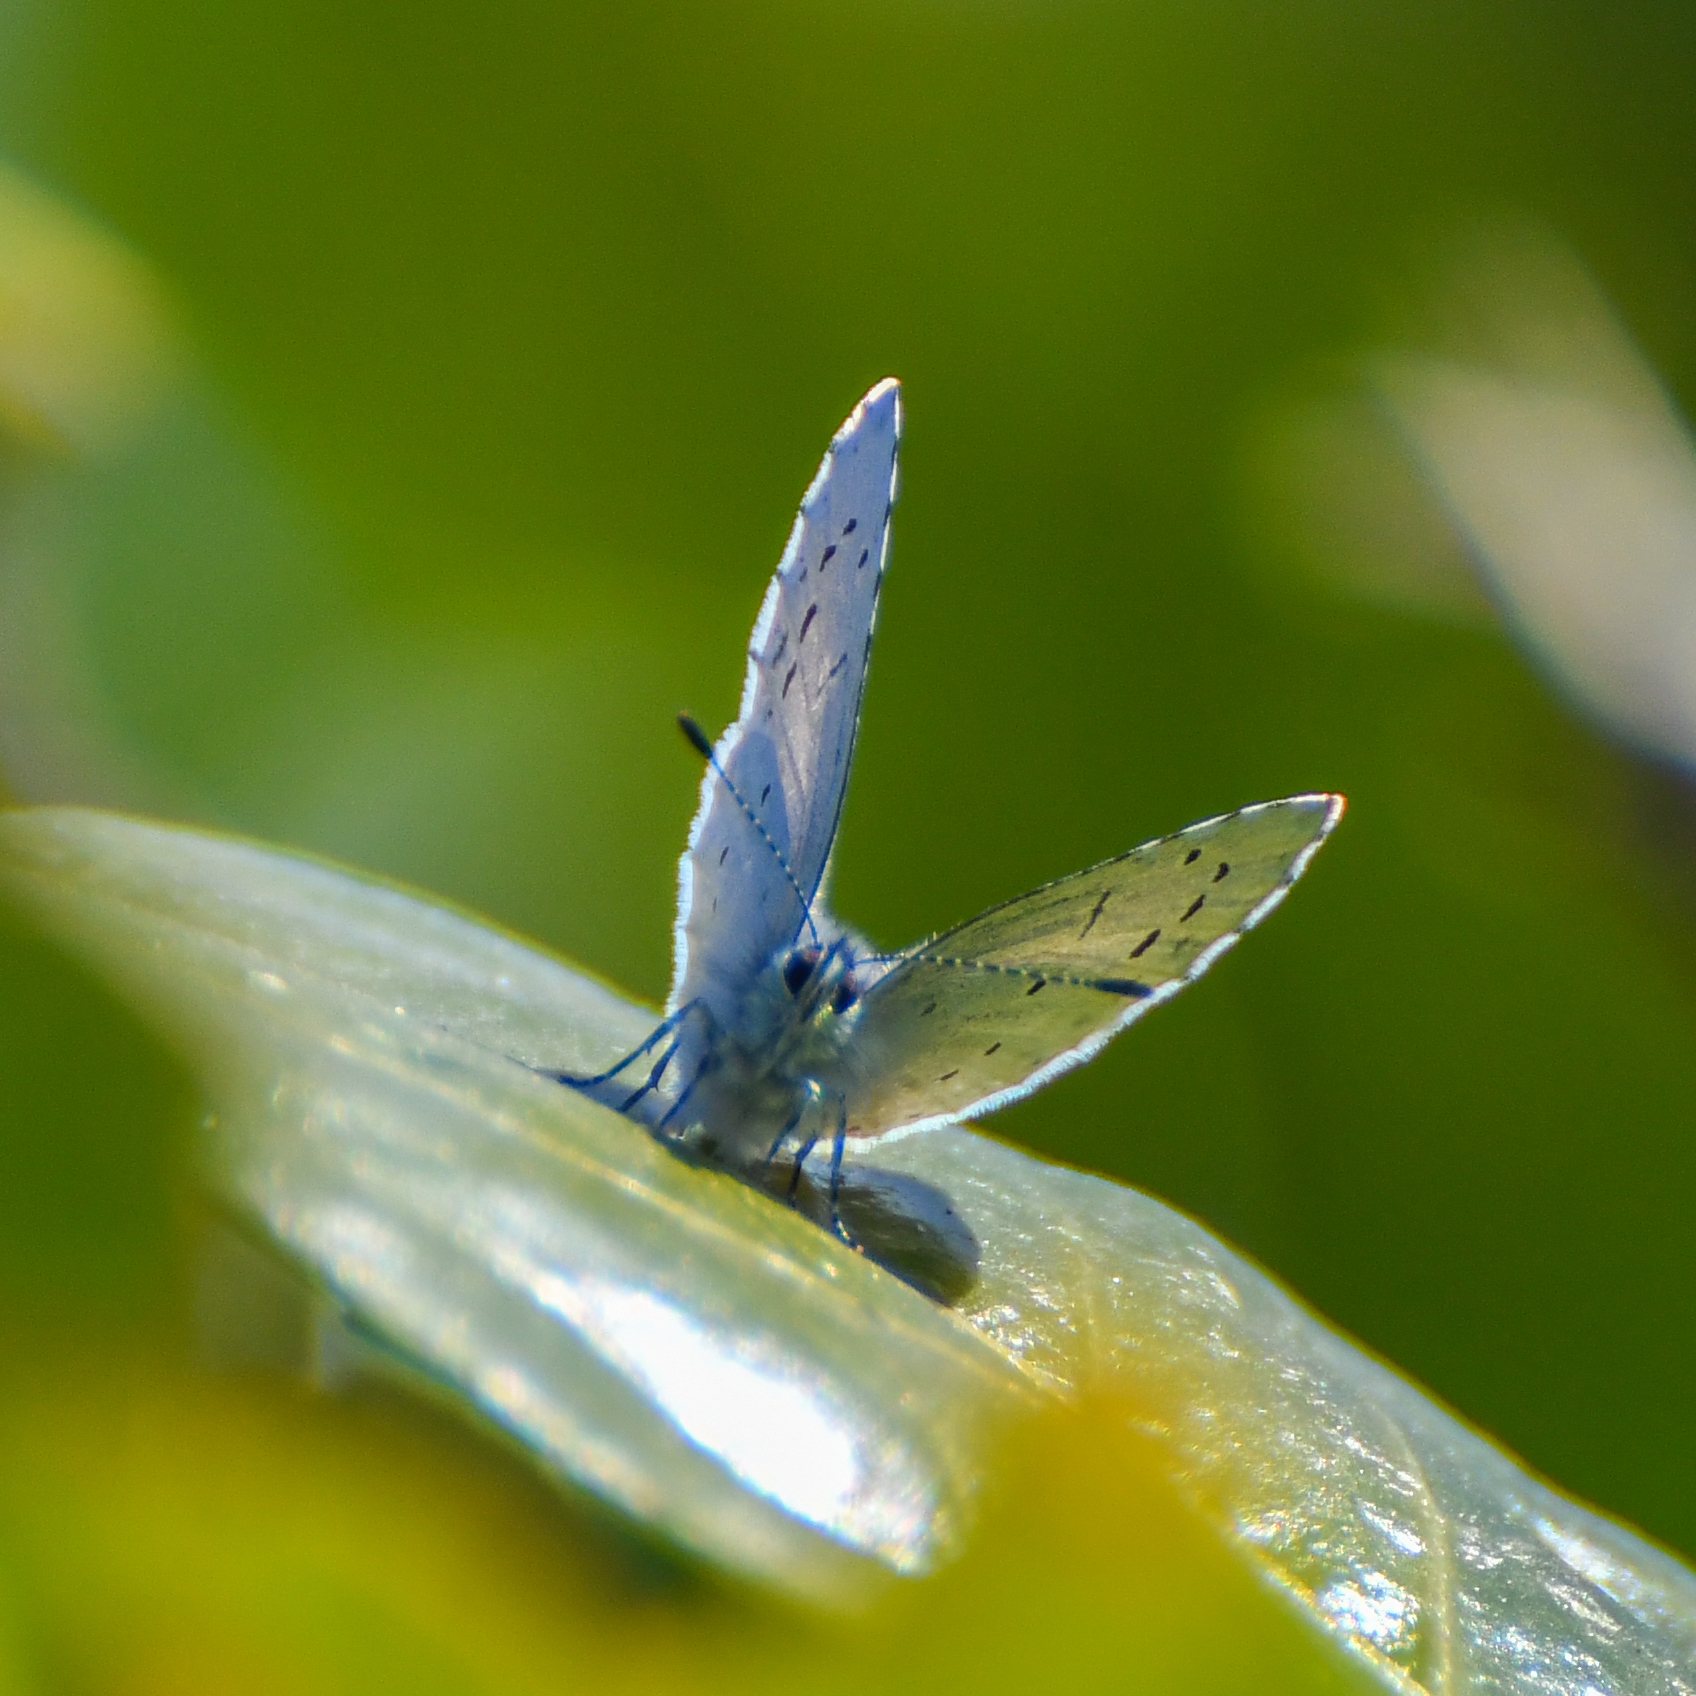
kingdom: Animalia
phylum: Arthropoda
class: Insecta
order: Lepidoptera
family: Lycaenidae
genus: Celastrina
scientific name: Celastrina argiolus
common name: Holly blue
